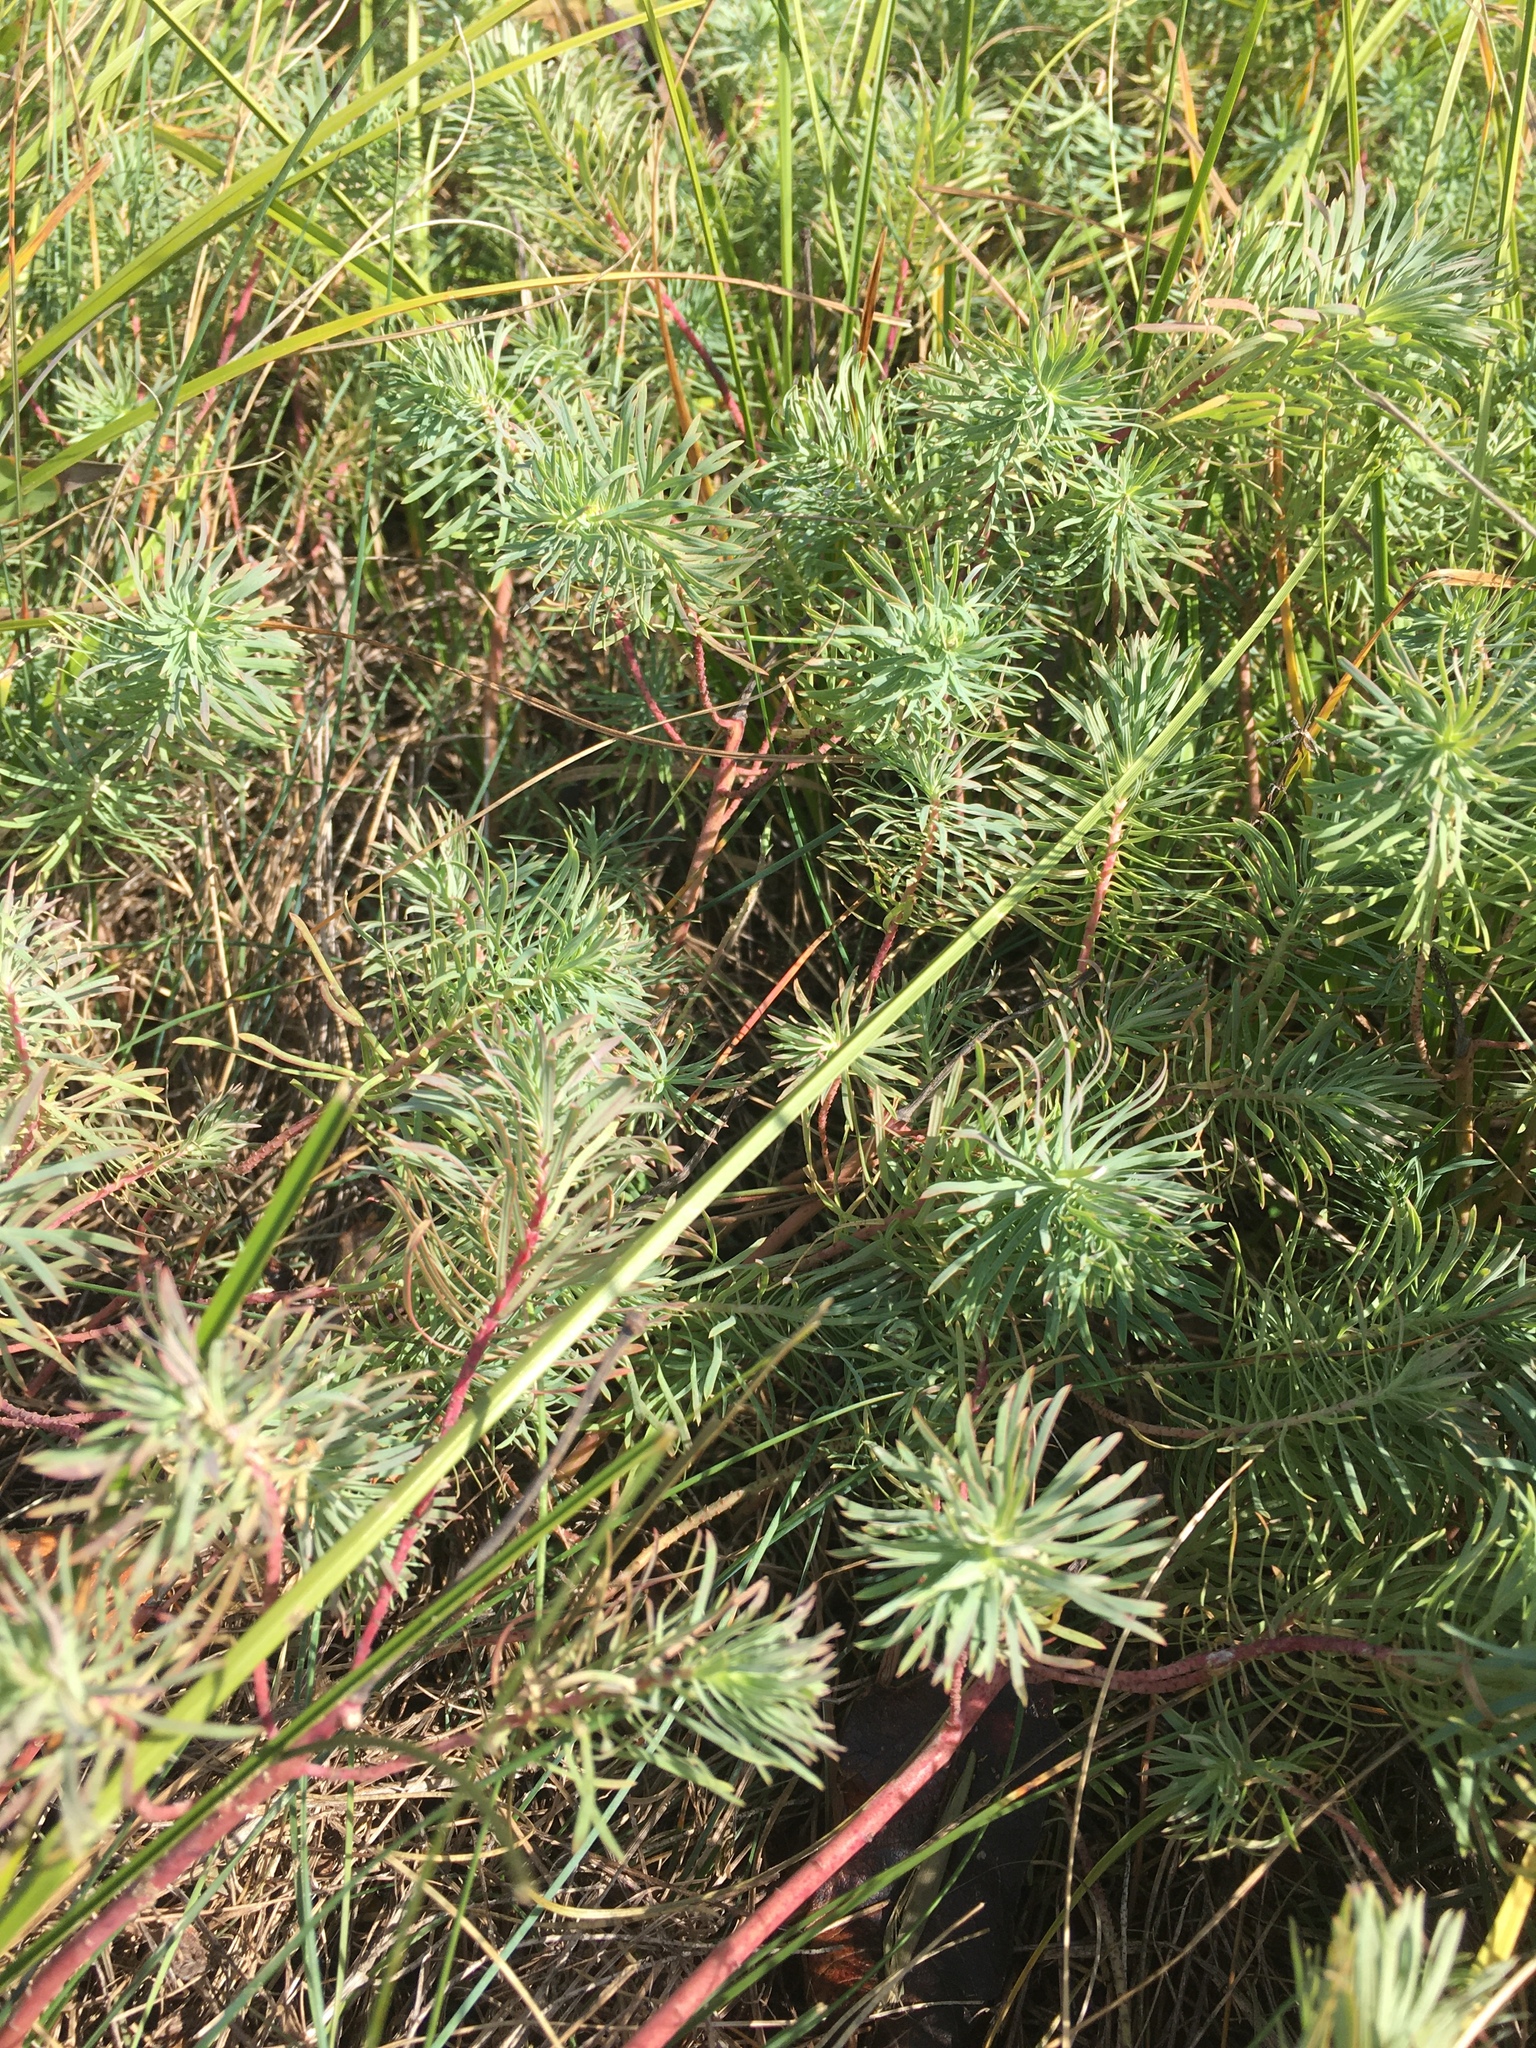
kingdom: Plantae
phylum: Tracheophyta
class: Magnoliopsida
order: Malpighiales
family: Euphorbiaceae
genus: Euphorbia
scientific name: Euphorbia cyparissias
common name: Cypress spurge
